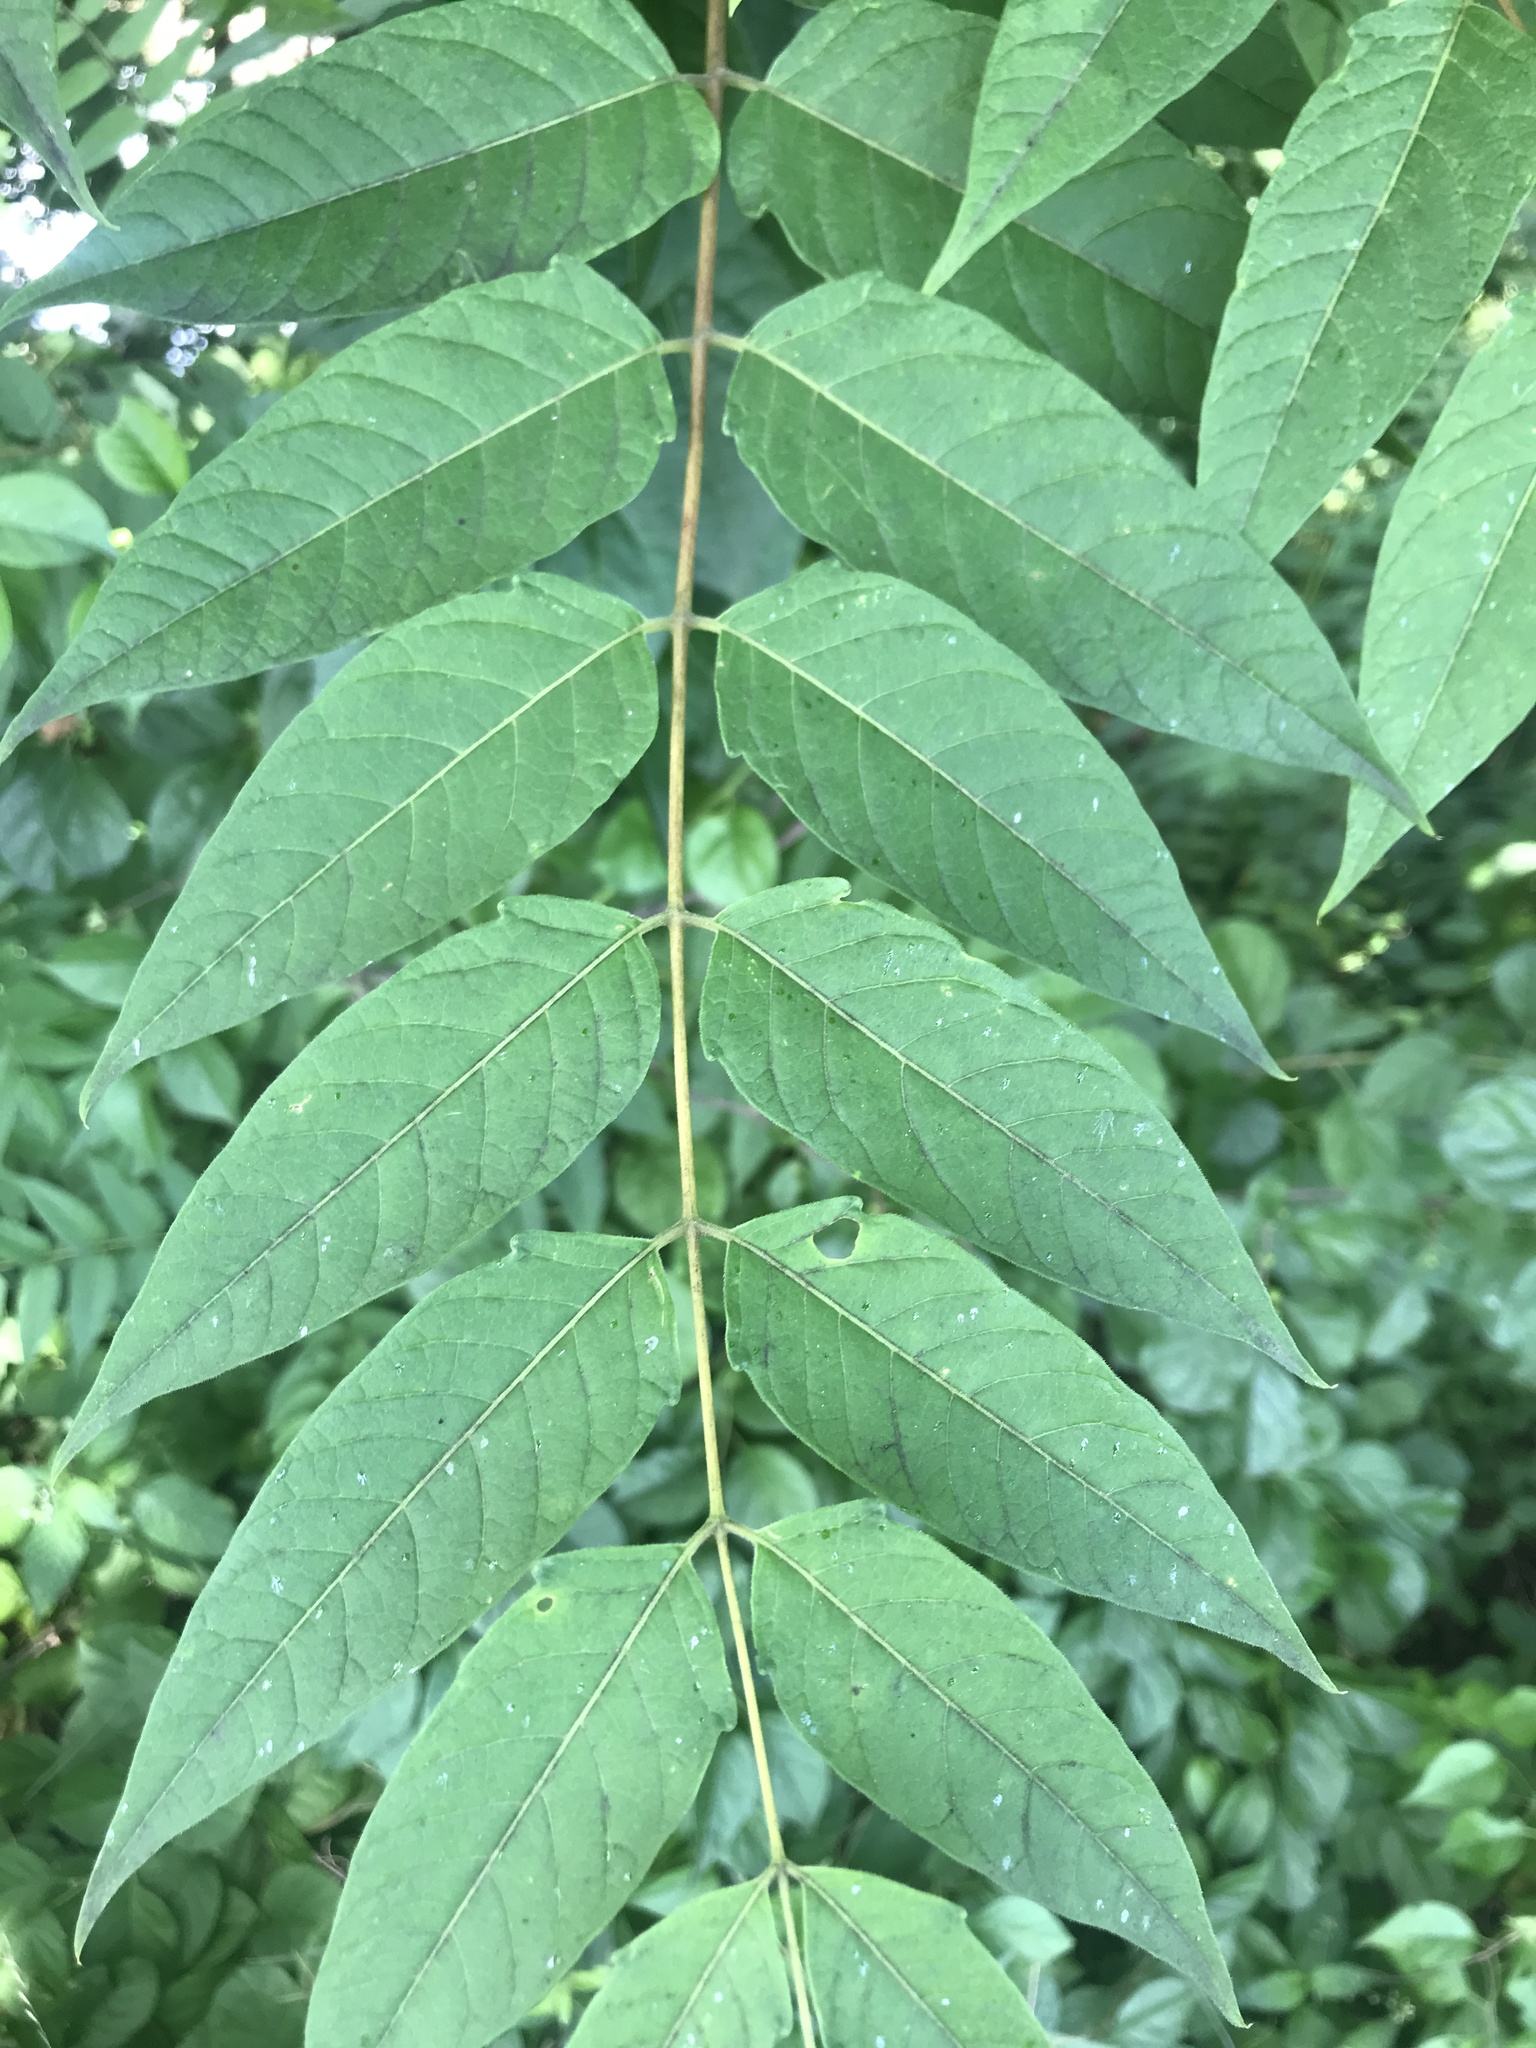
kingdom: Plantae
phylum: Tracheophyta
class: Magnoliopsida
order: Sapindales
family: Simaroubaceae
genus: Ailanthus
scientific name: Ailanthus altissima
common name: Tree-of-heaven
